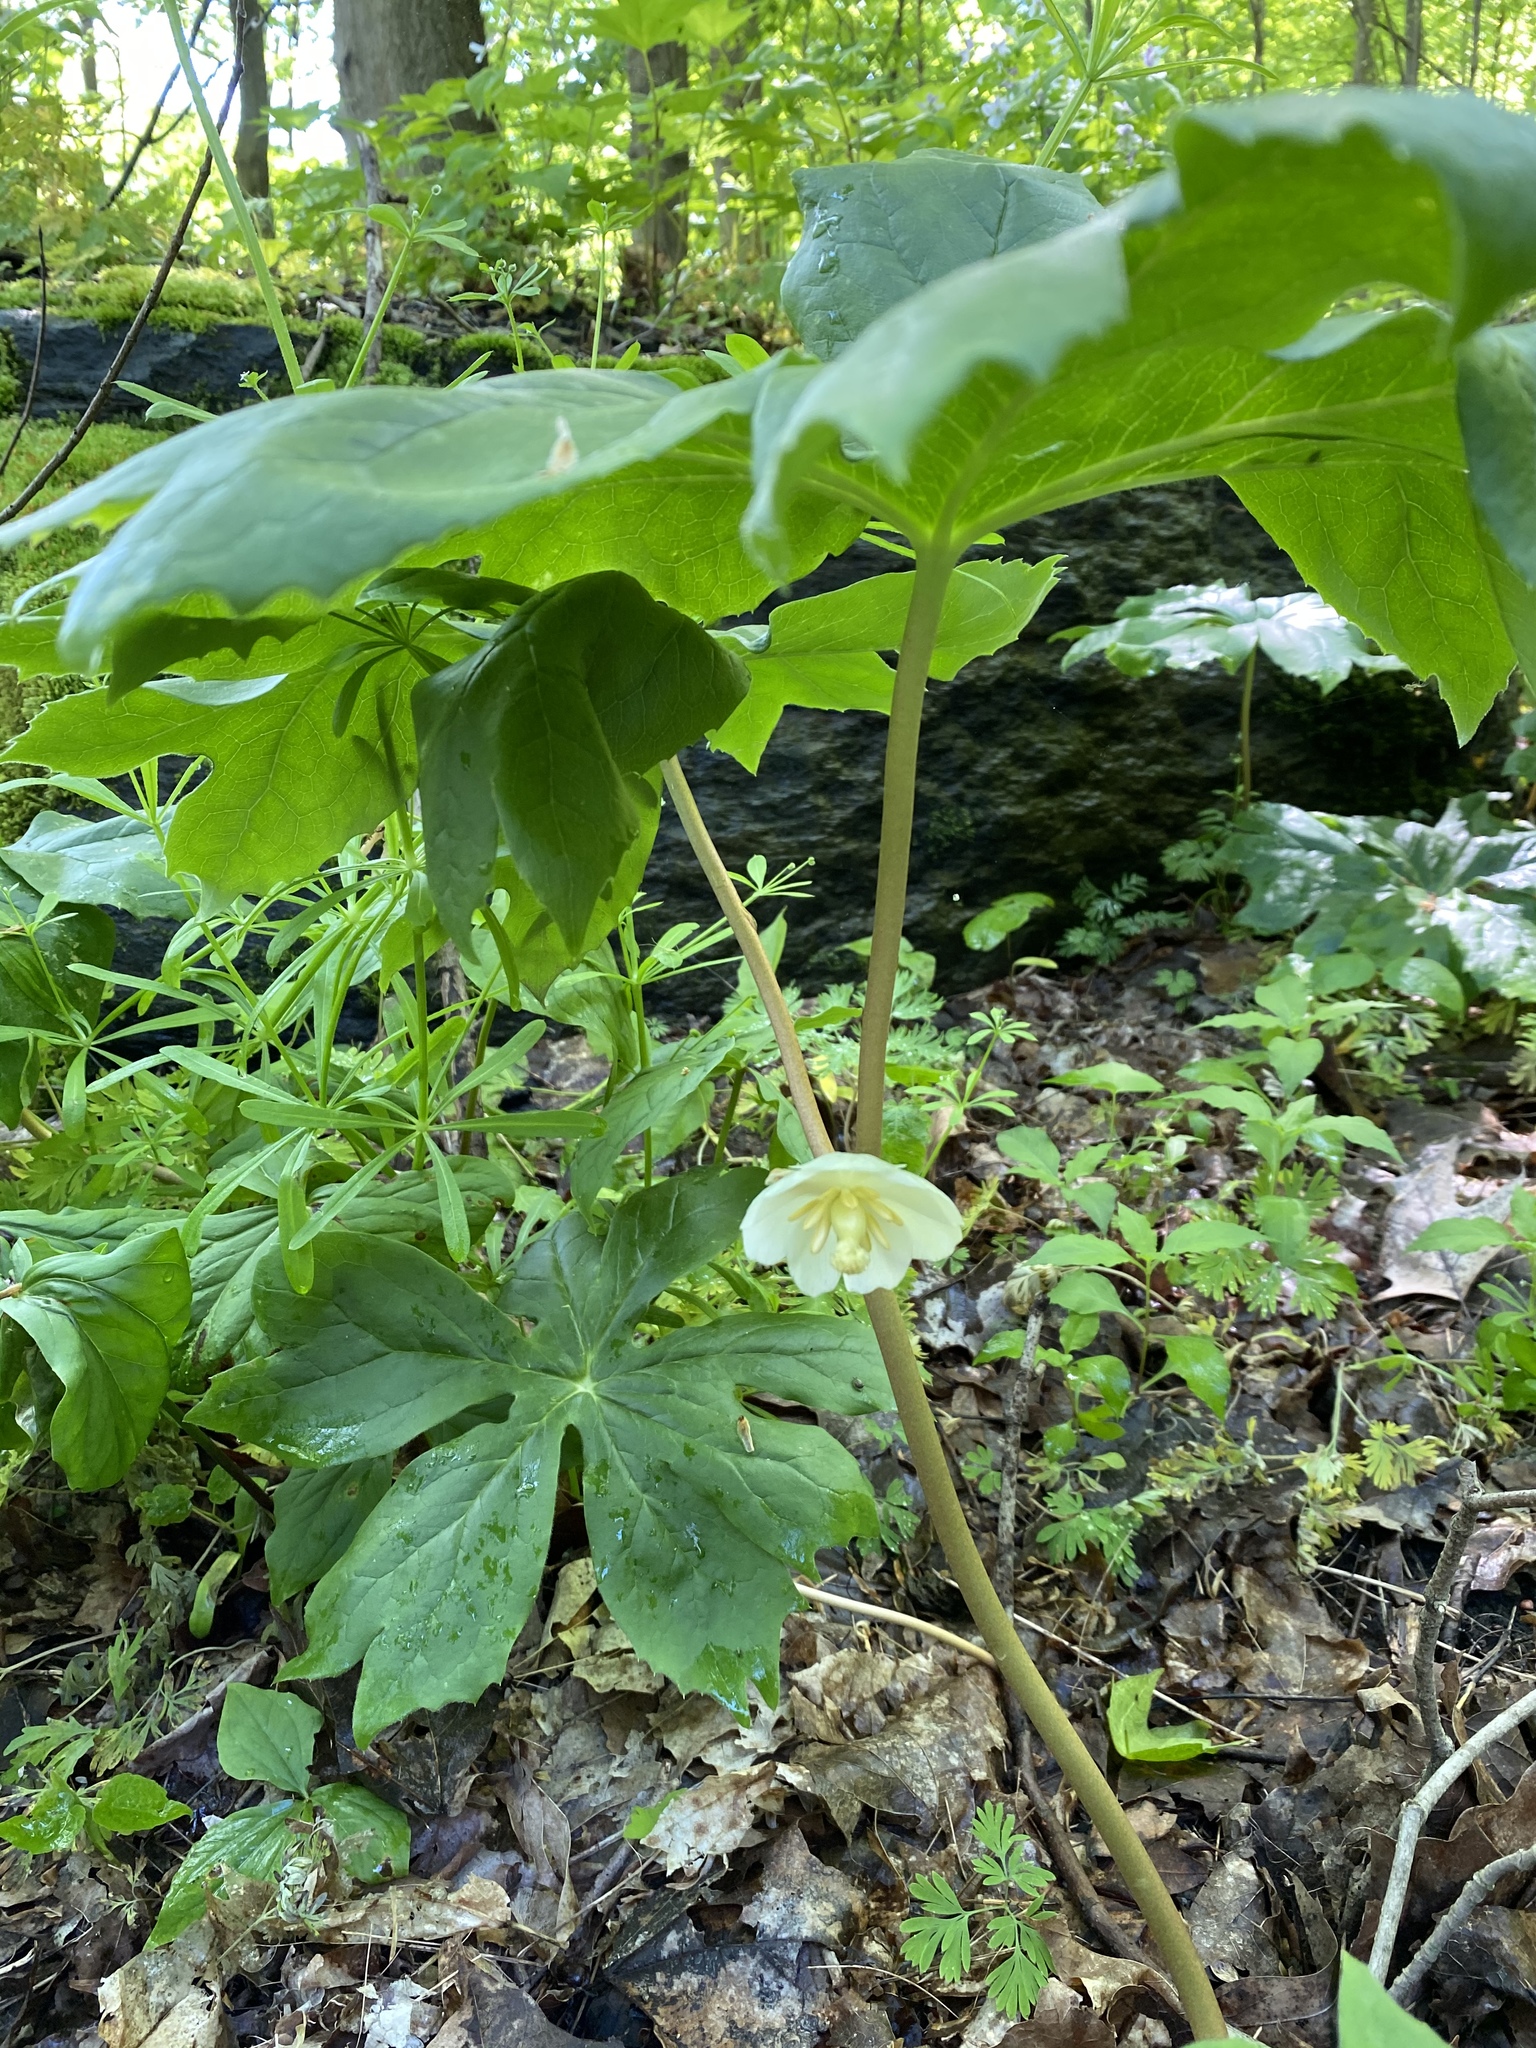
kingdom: Plantae
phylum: Tracheophyta
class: Magnoliopsida
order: Ranunculales
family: Berberidaceae
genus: Podophyllum
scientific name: Podophyllum peltatum
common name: Wild mandrake
